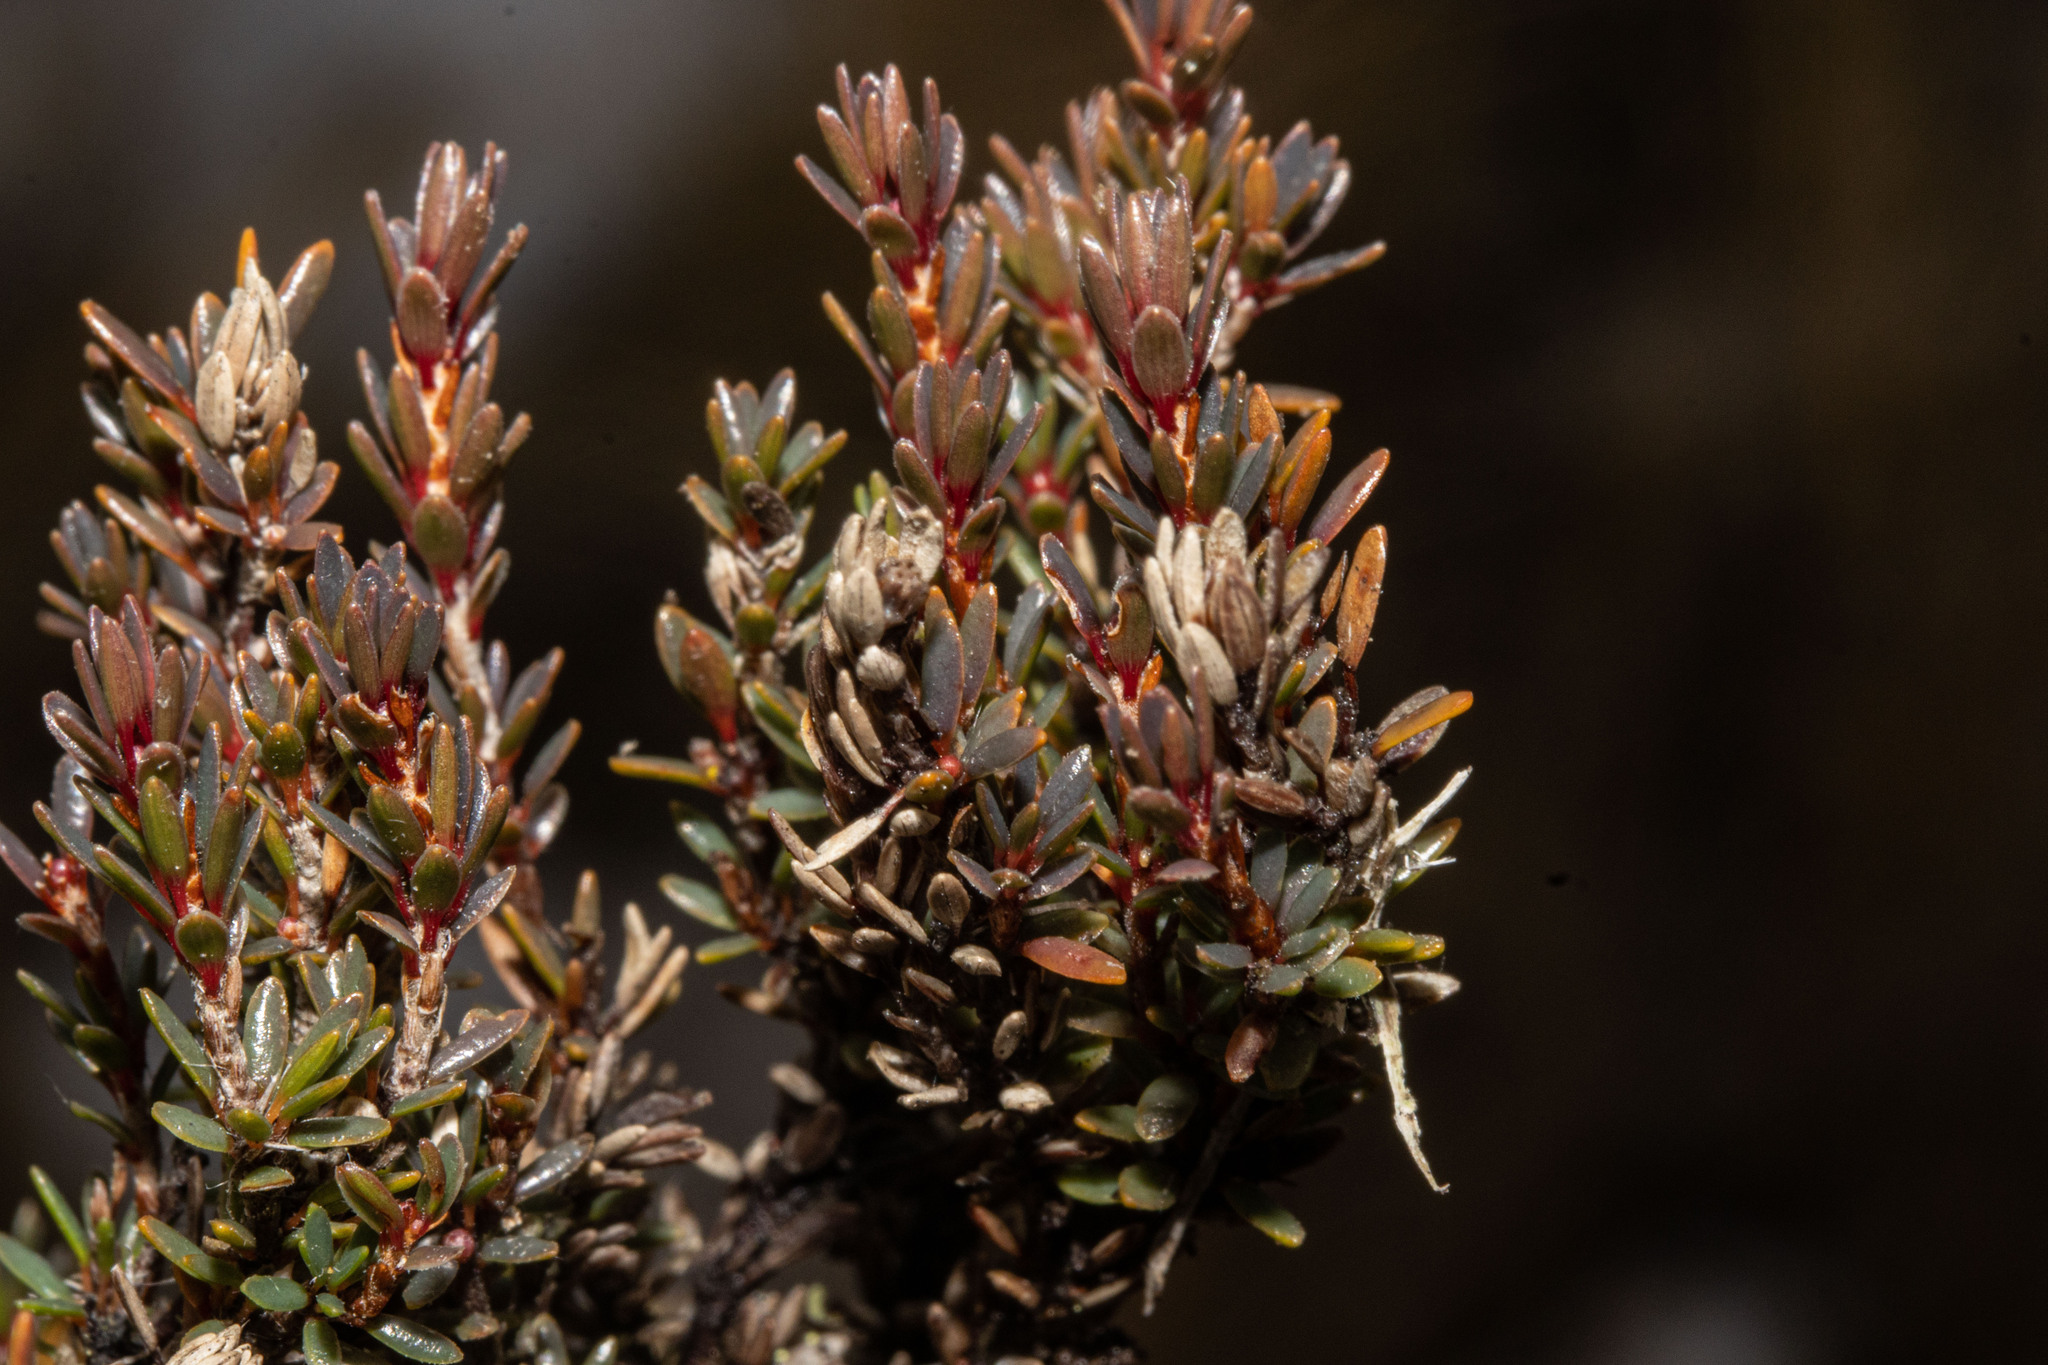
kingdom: Plantae
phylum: Tracheophyta
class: Magnoliopsida
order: Ericales
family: Ericaceae
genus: Pentachondra
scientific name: Pentachondra pumila
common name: Carpet-heath
